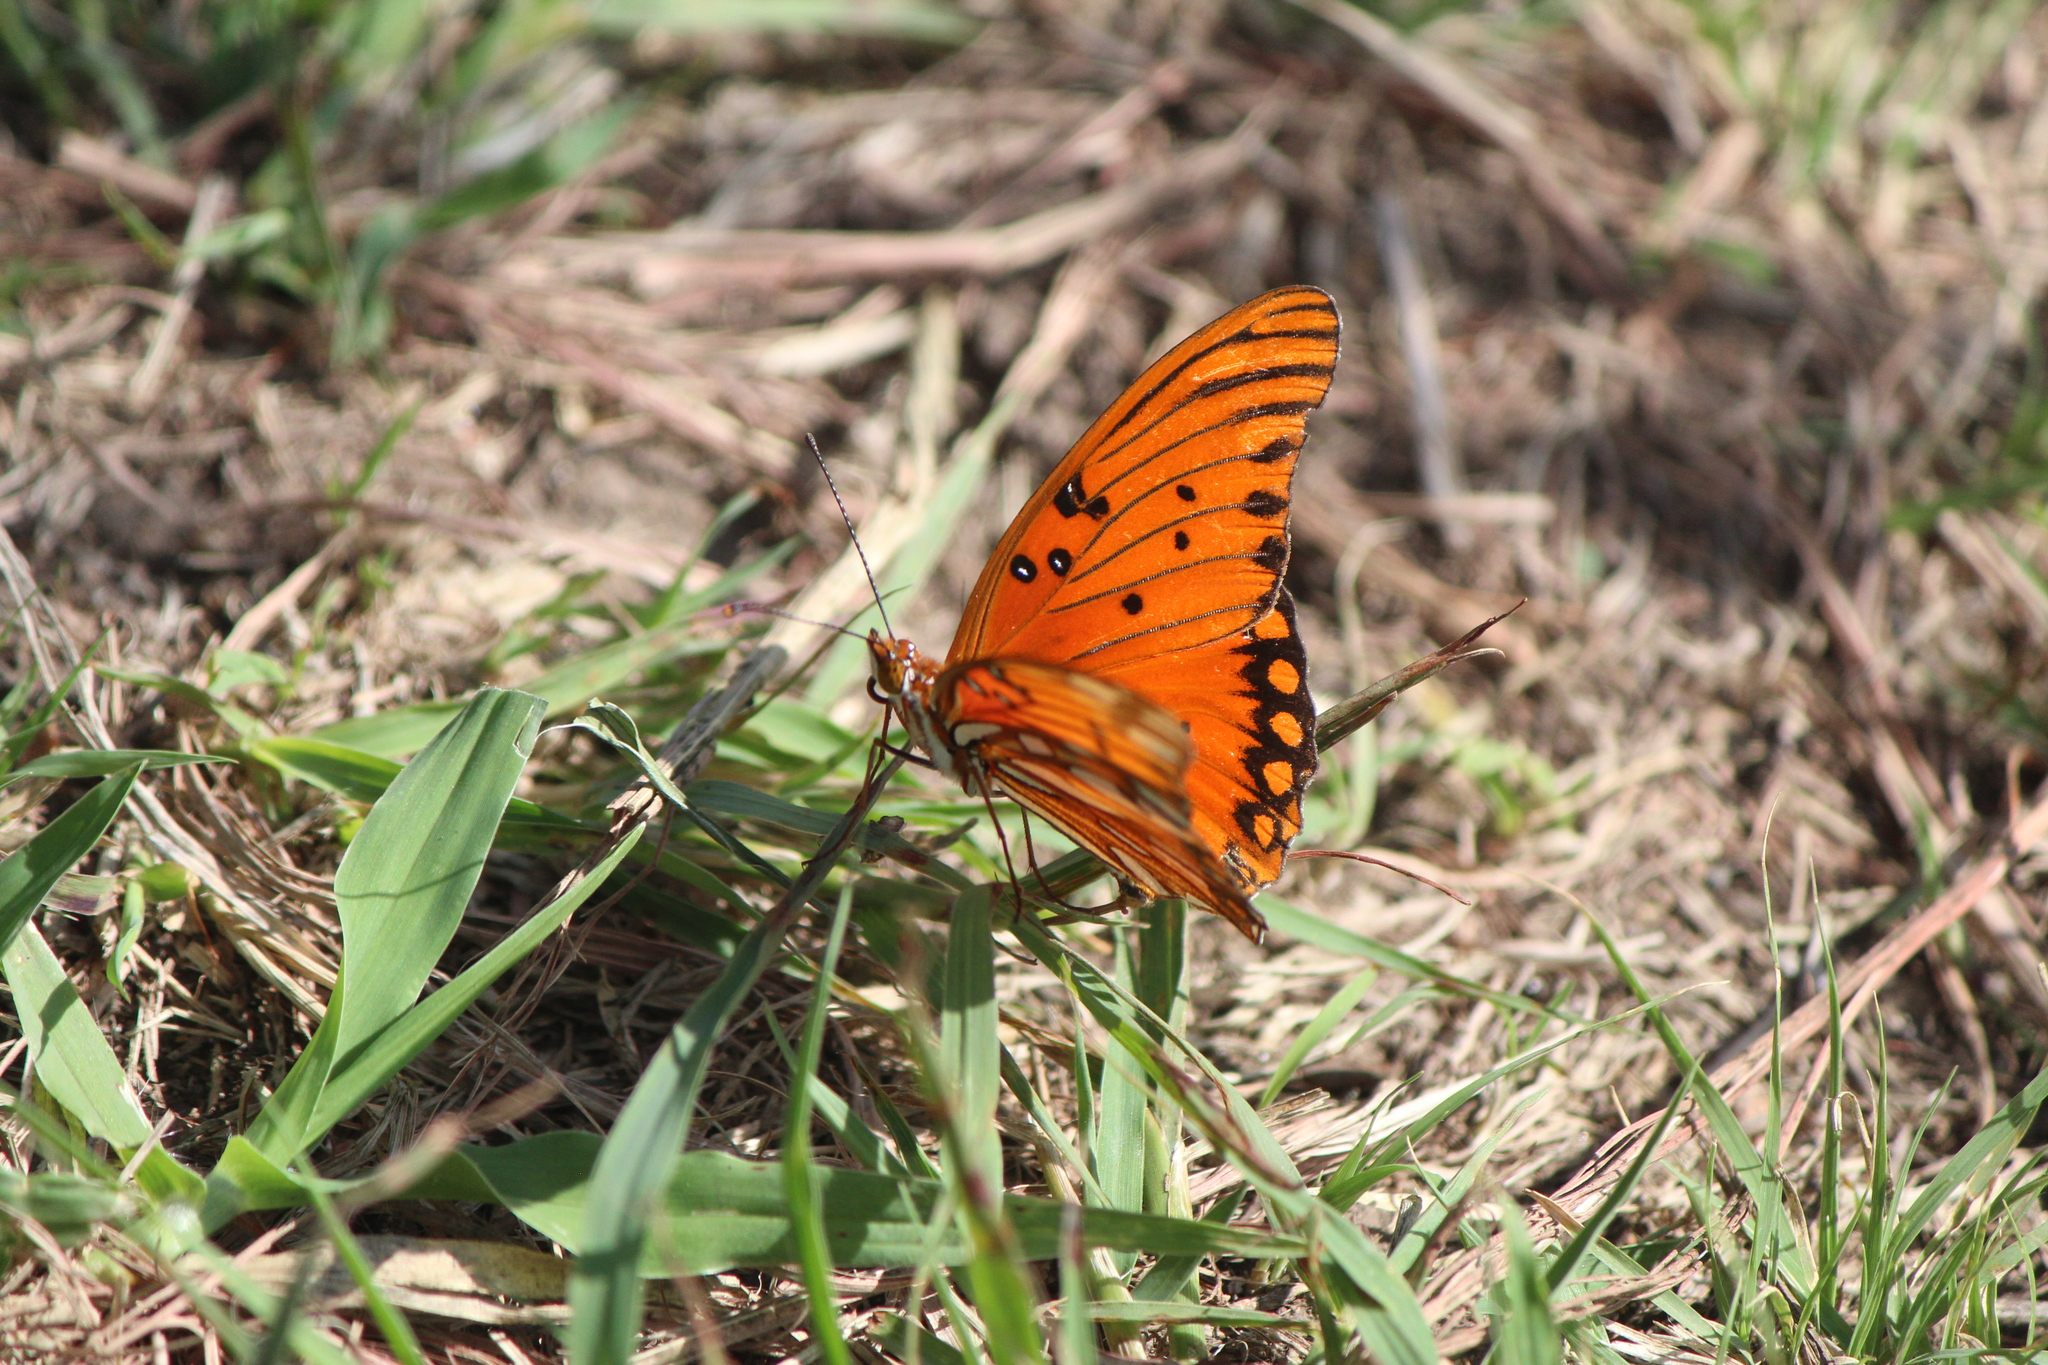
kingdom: Animalia
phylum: Arthropoda
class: Insecta
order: Lepidoptera
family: Nymphalidae
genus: Dione
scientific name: Dione vanillae
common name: Gulf fritillary
